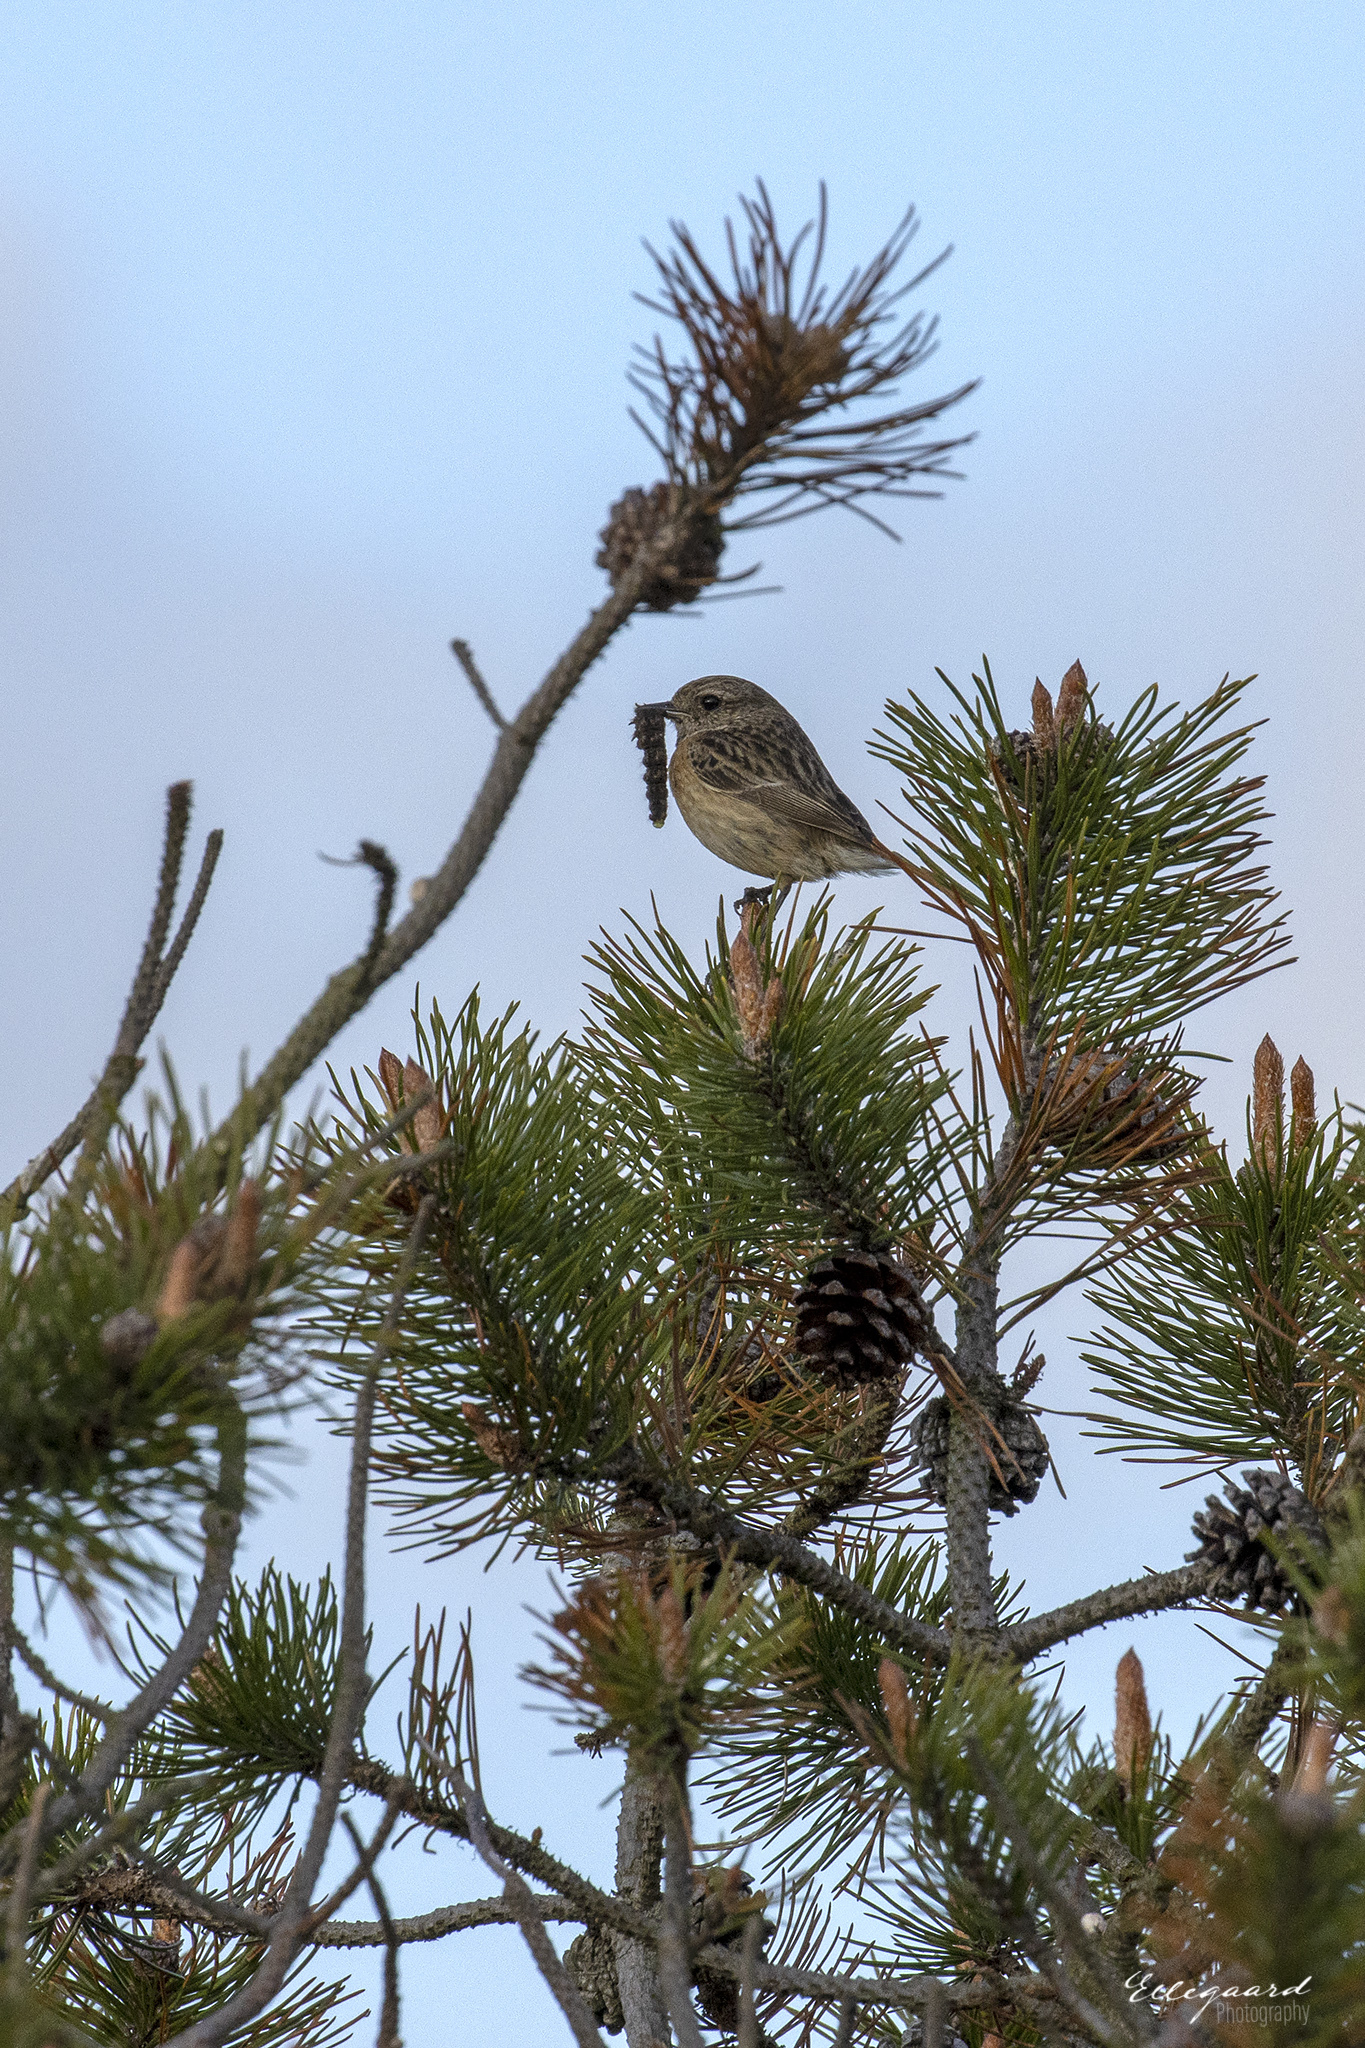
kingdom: Animalia
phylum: Chordata
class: Aves
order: Passeriformes
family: Muscicapidae
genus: Saxicola
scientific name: Saxicola rubicola
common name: European stonechat
